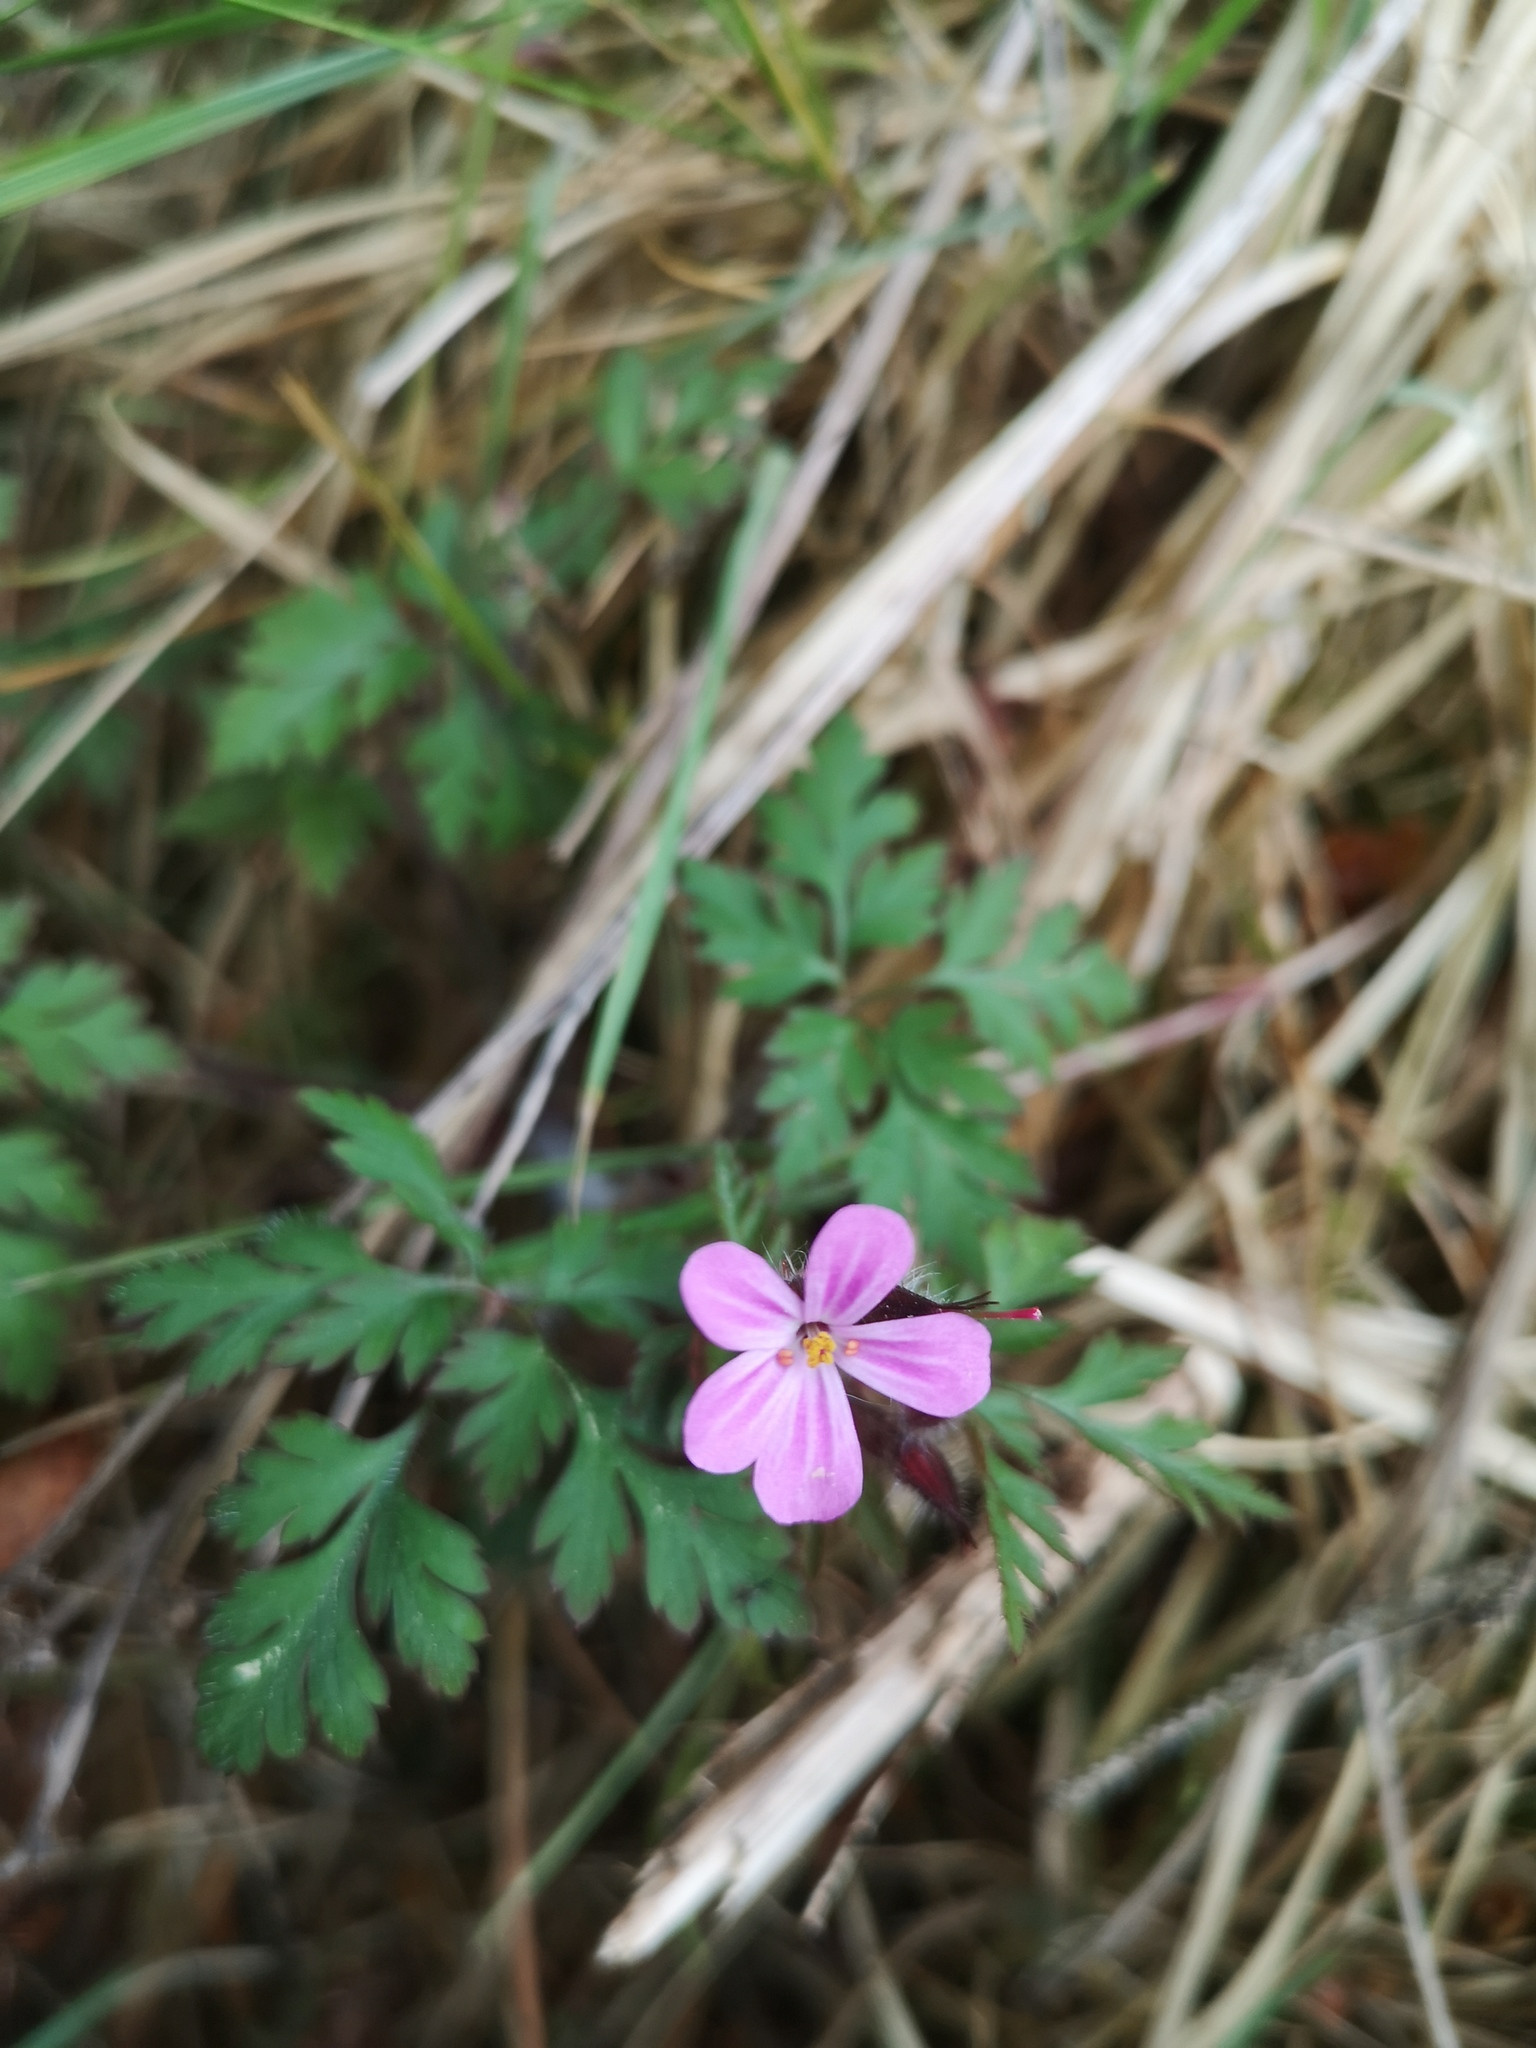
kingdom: Plantae
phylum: Tracheophyta
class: Magnoliopsida
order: Geraniales
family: Geraniaceae
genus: Geranium
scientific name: Geranium robertianum
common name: Herb-robert
